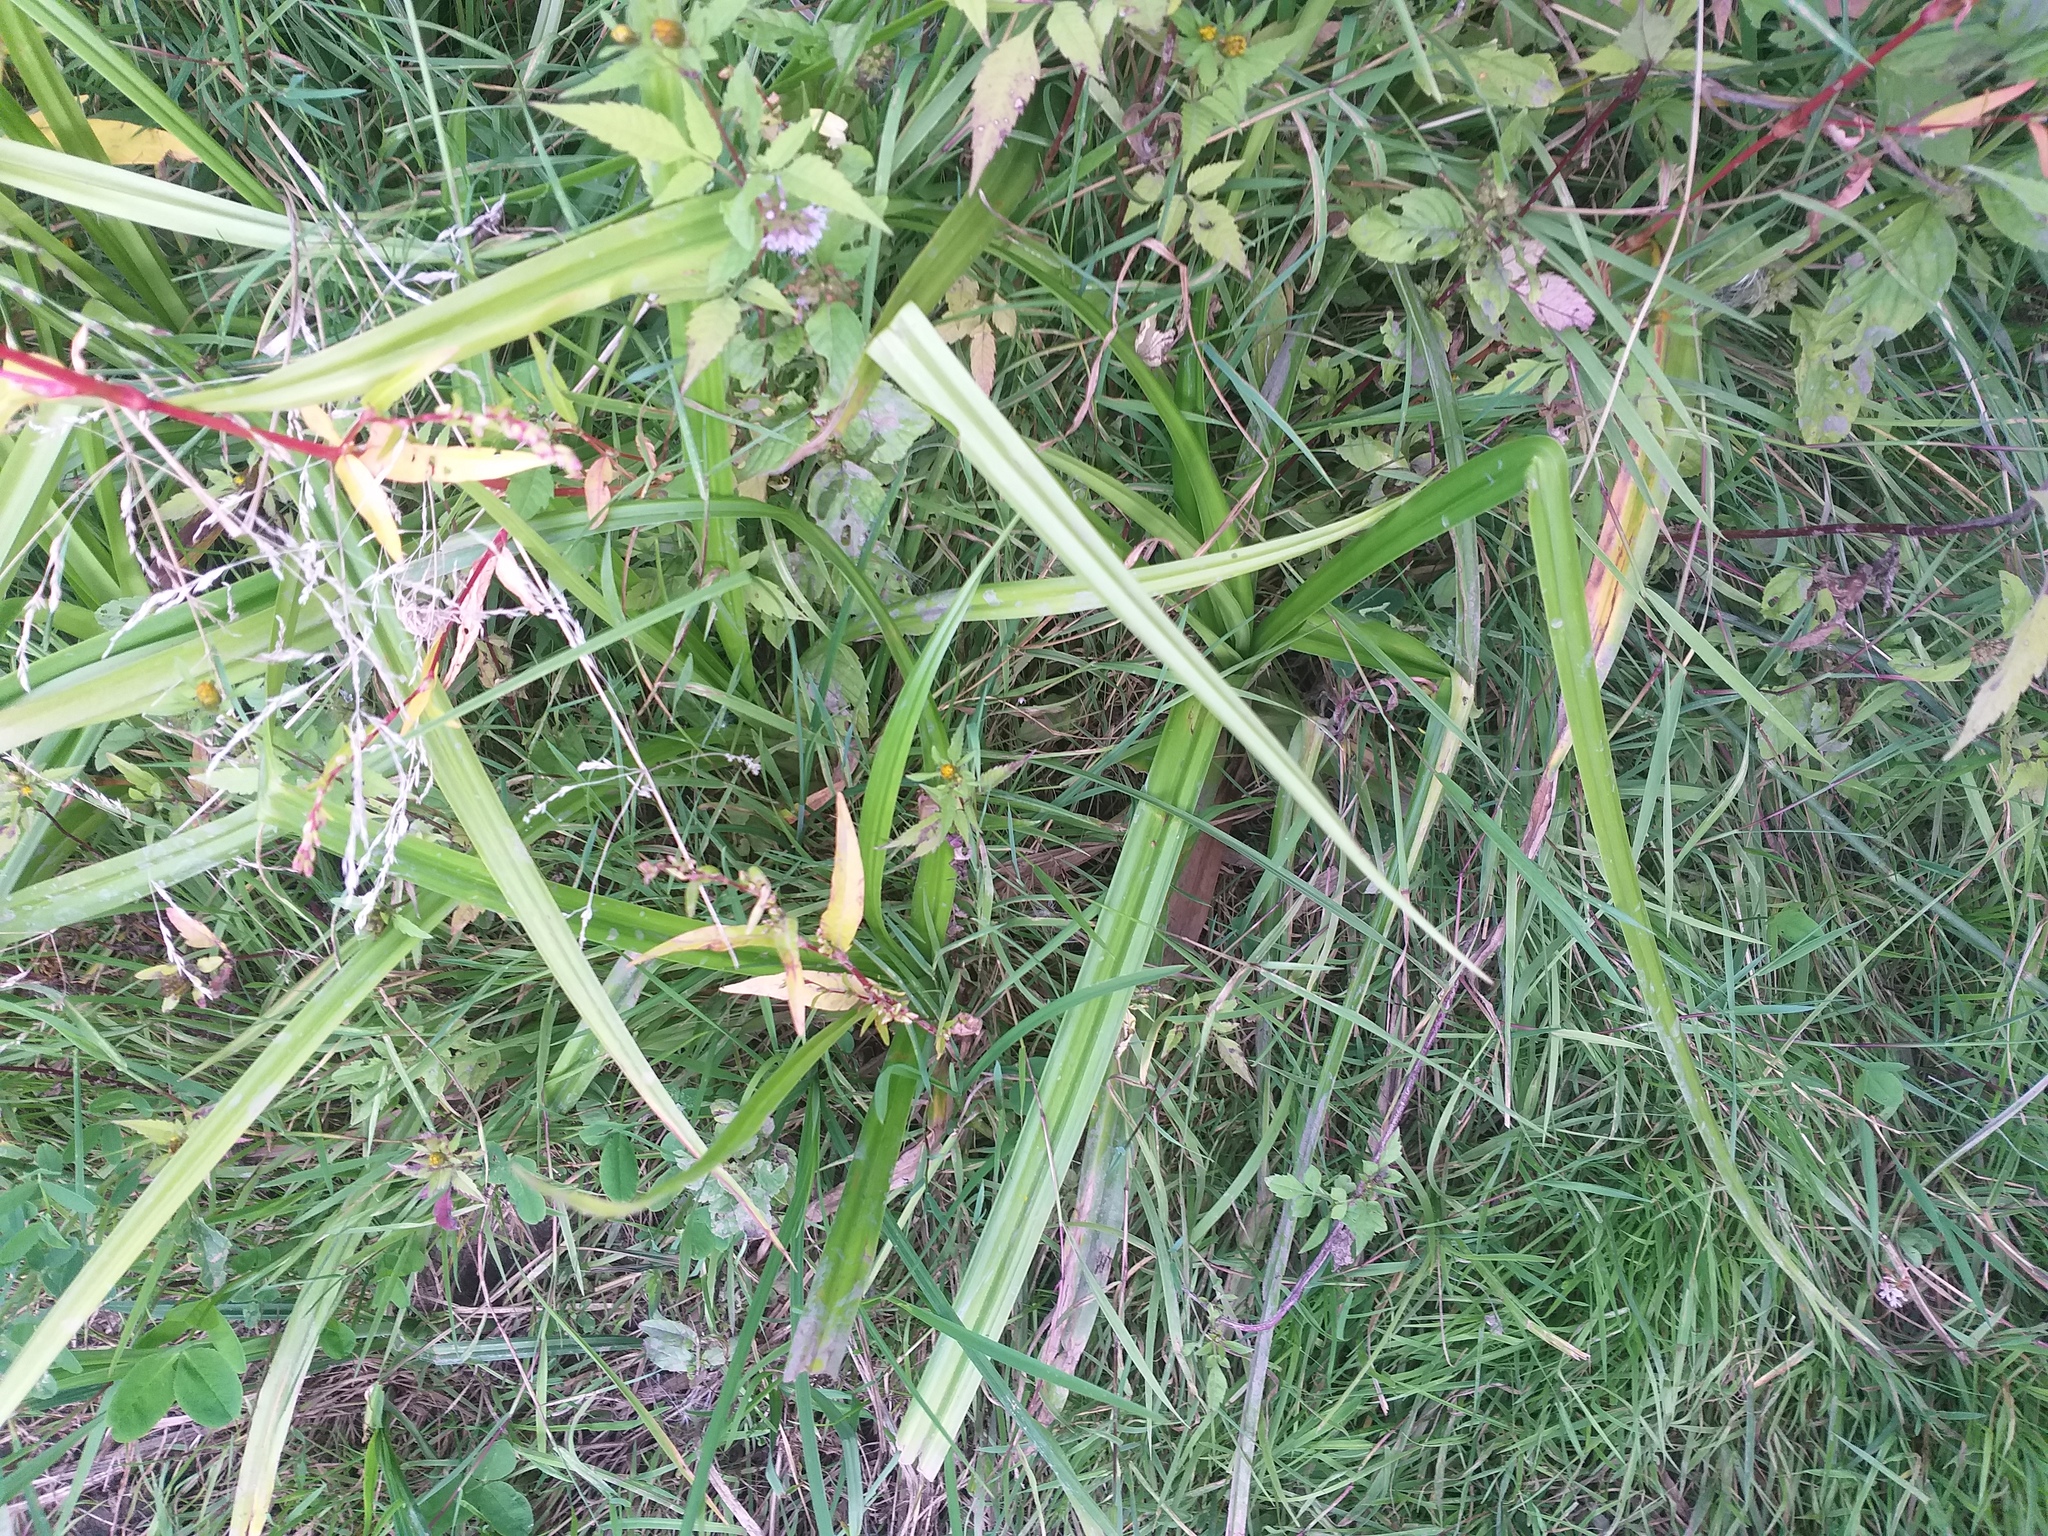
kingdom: Plantae
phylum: Tracheophyta
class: Liliopsida
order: Poales
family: Cyperaceae
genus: Scirpus
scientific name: Scirpus sylvaticus
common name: Wood club-rush
